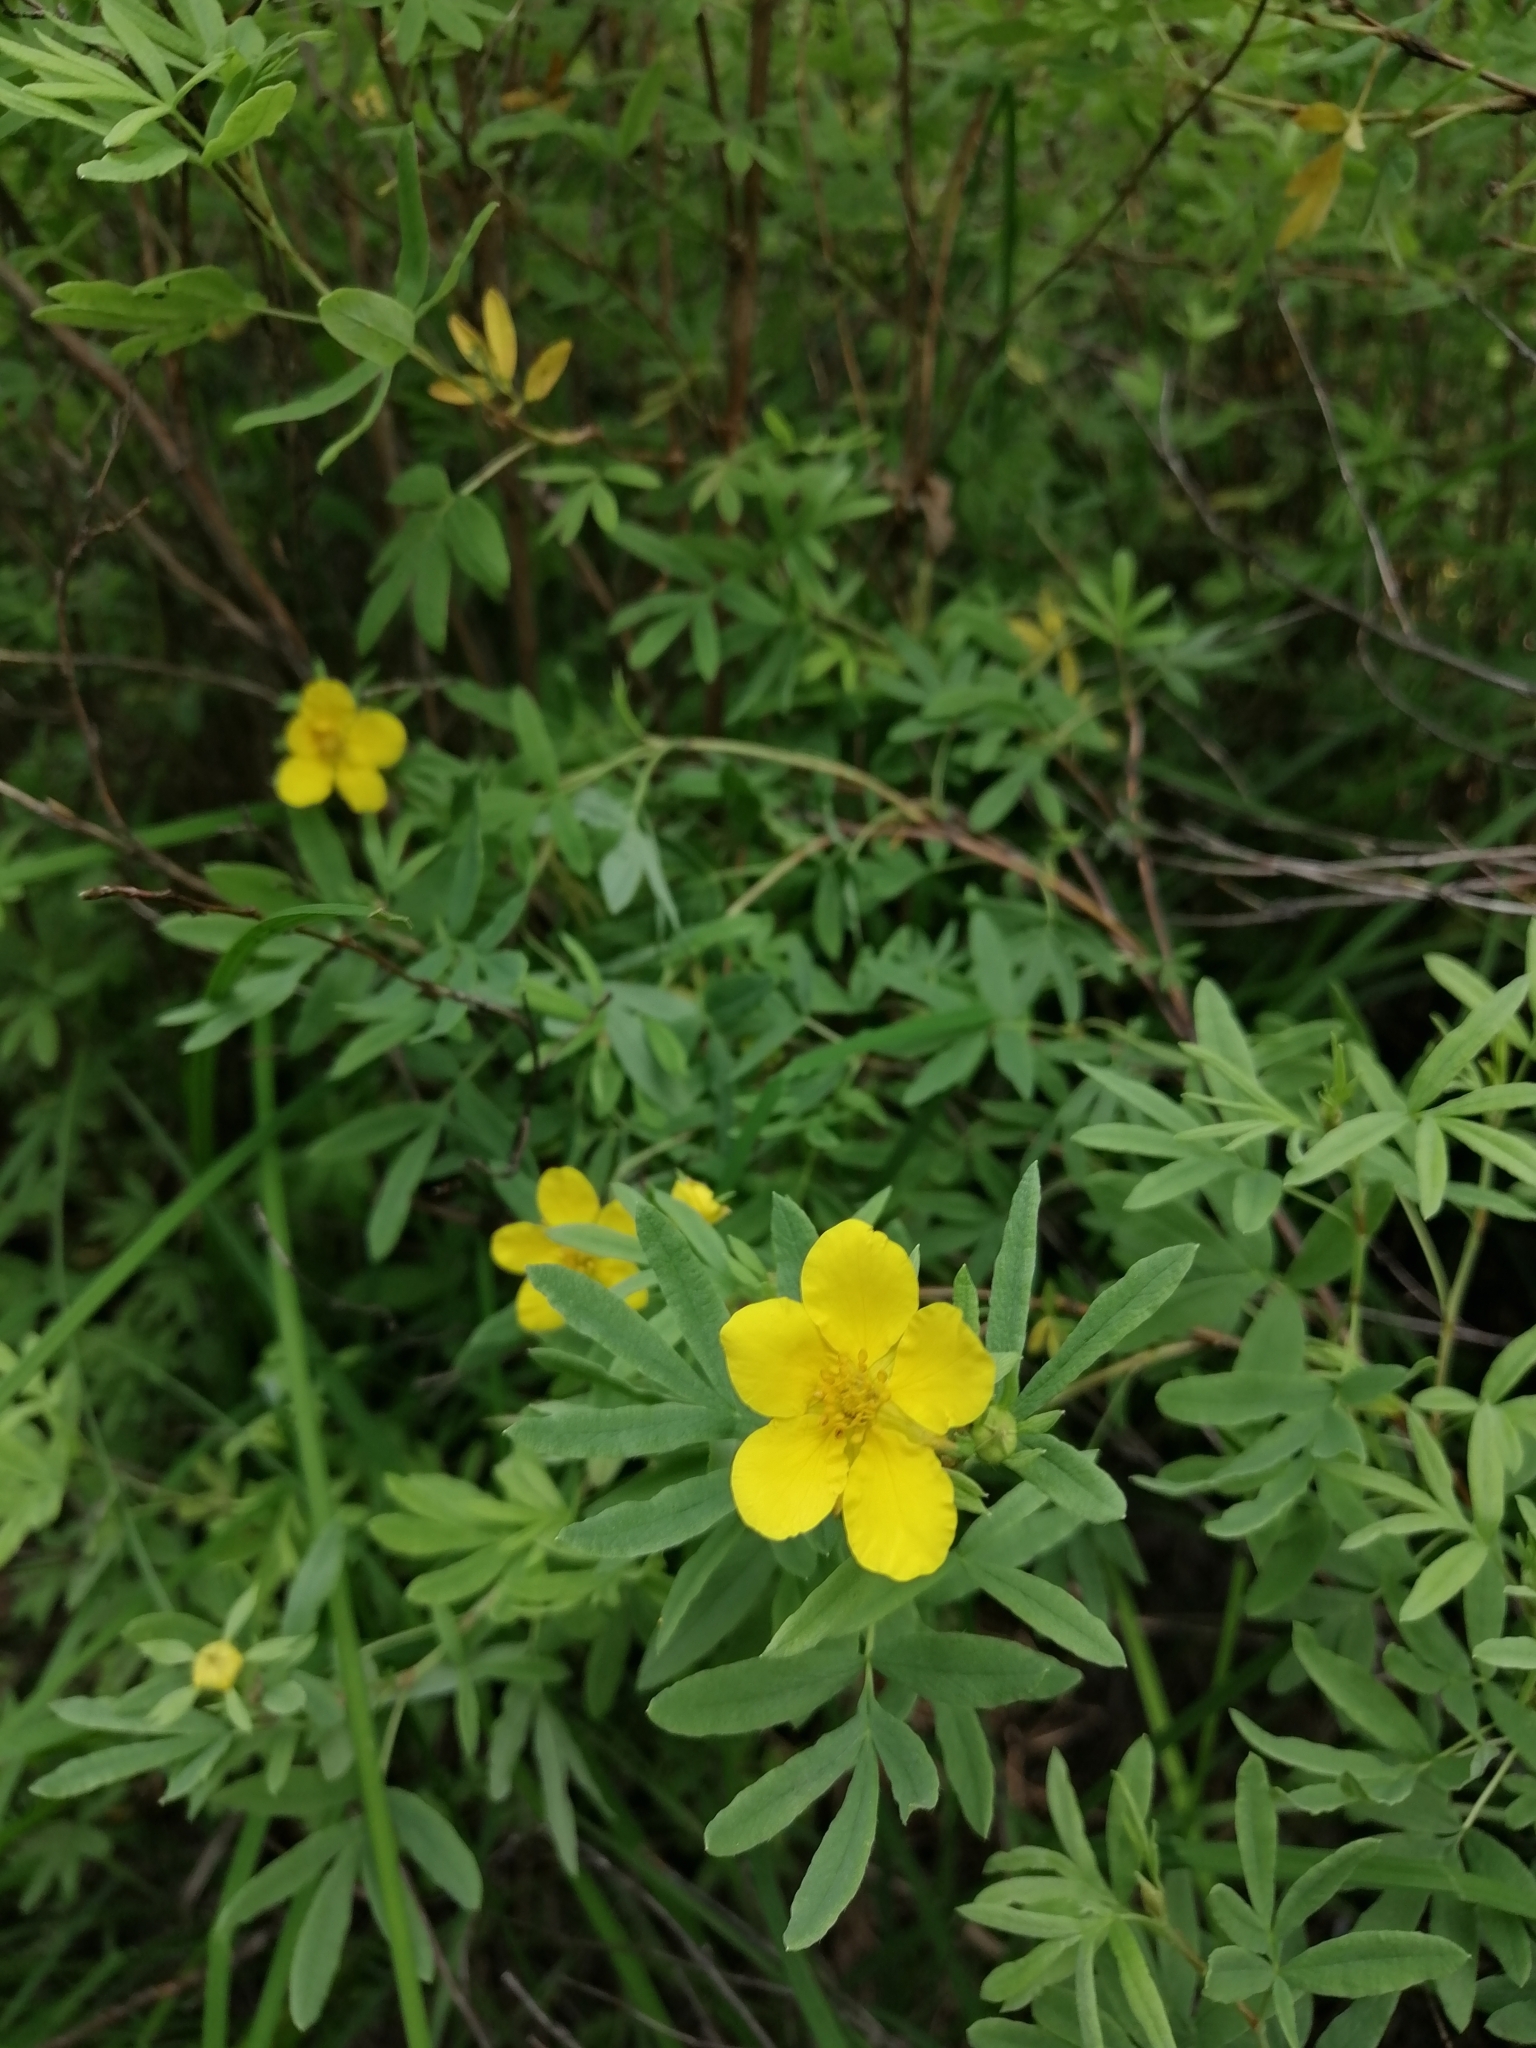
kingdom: Plantae
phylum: Tracheophyta
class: Magnoliopsida
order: Rosales
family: Rosaceae
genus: Dasiphora
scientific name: Dasiphora fruticosa
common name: Shrubby cinquefoil
